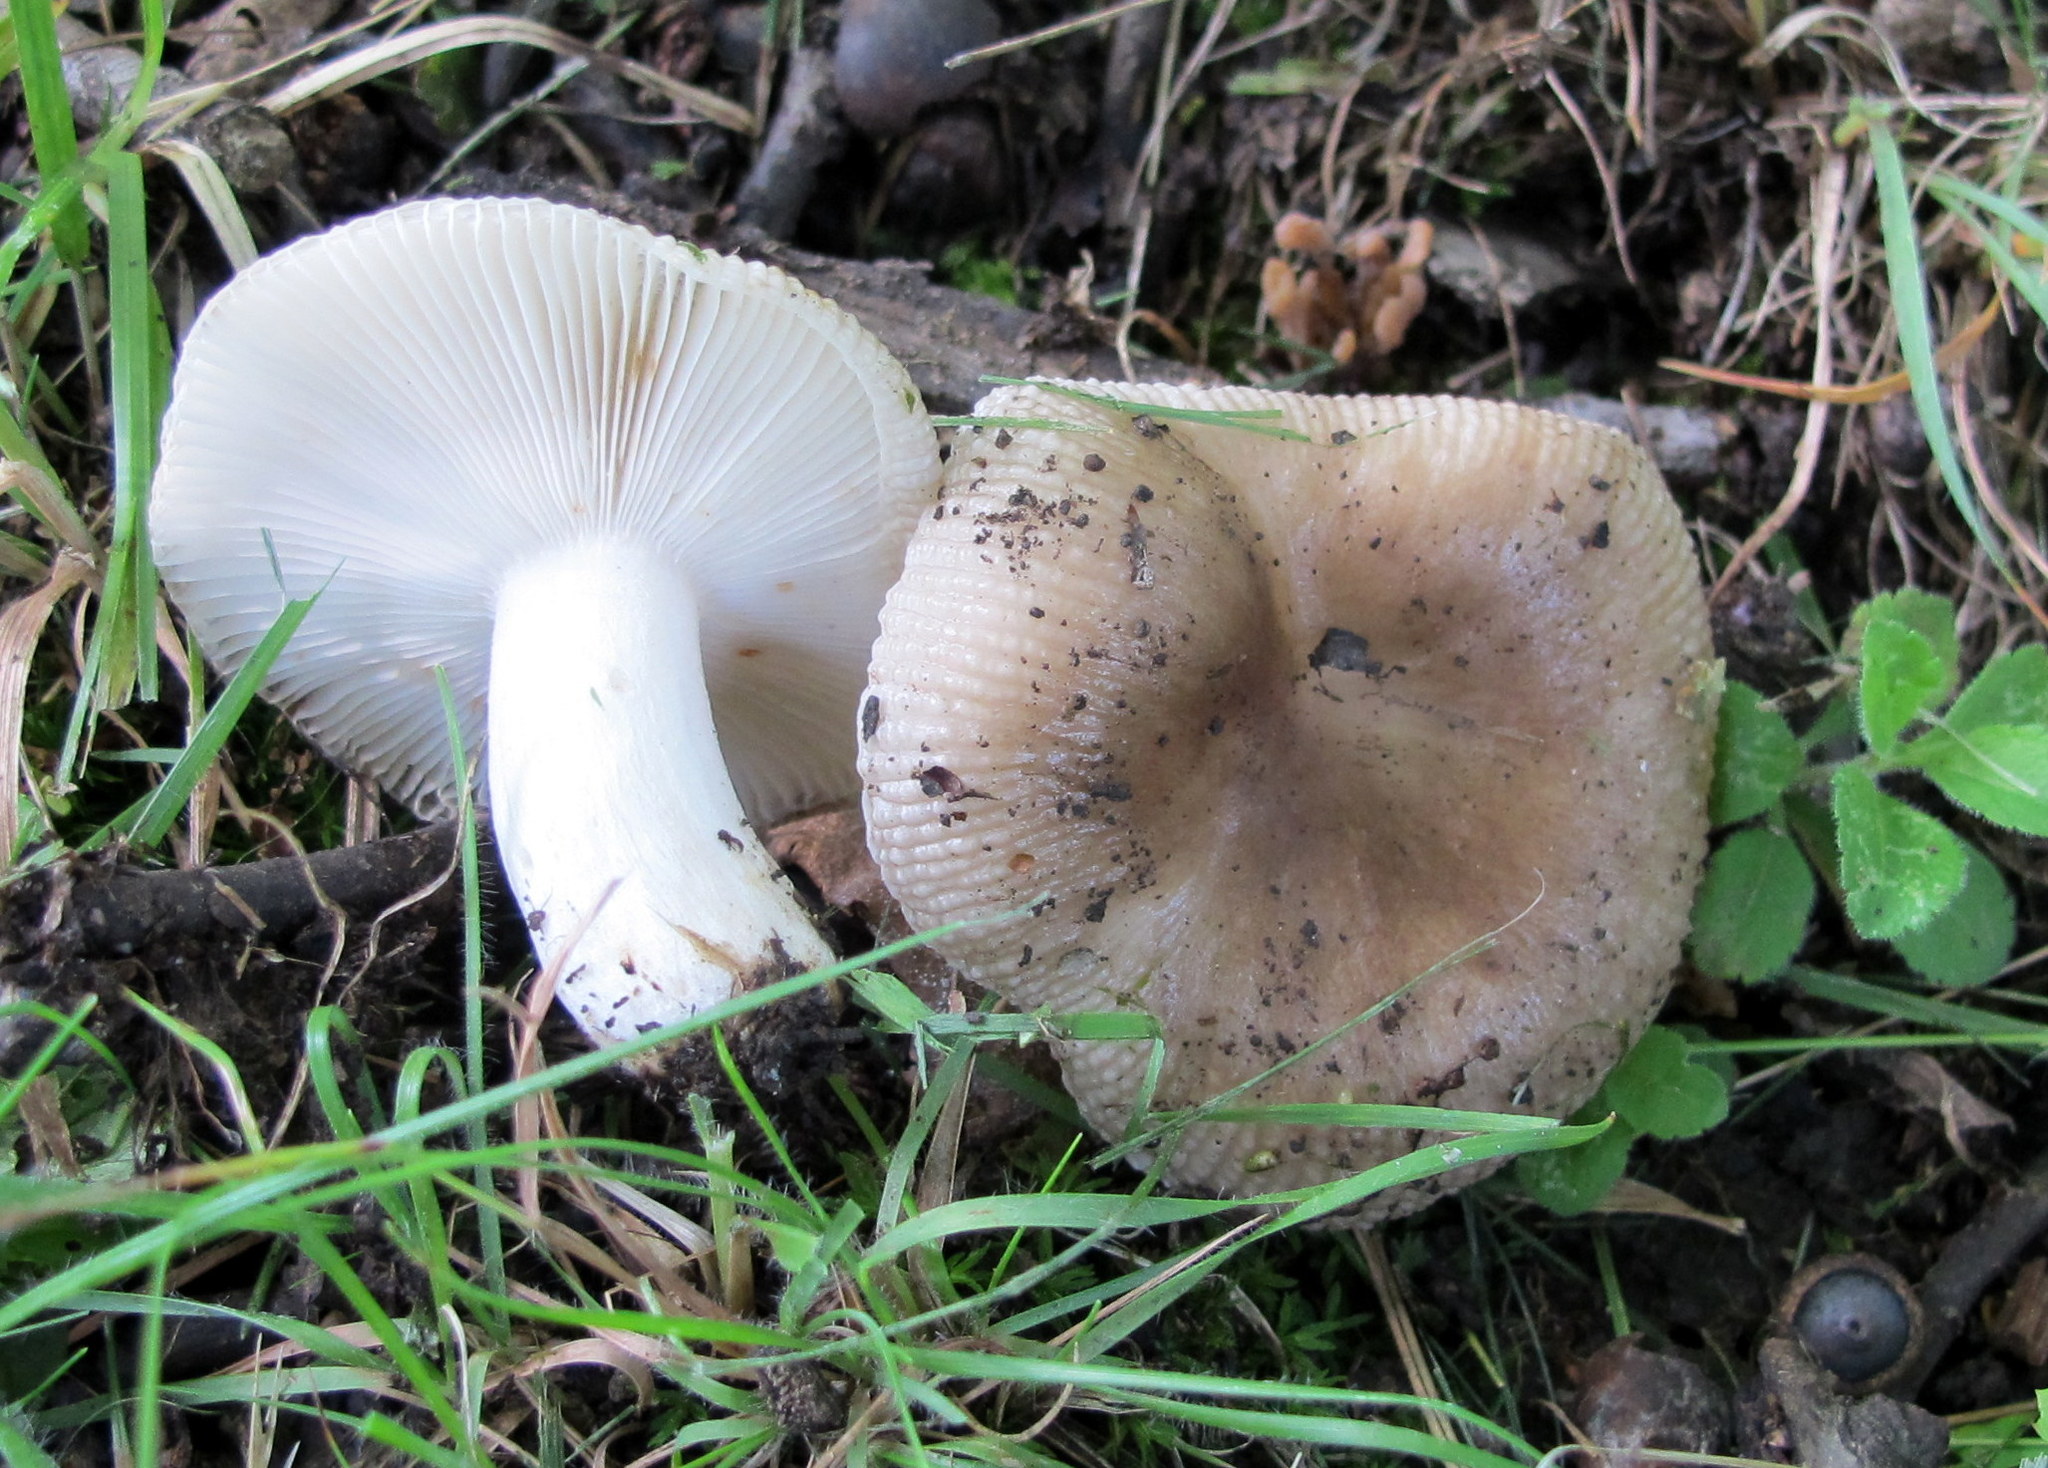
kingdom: Fungi
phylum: Basidiomycota
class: Agaricomycetes
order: Russulales
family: Russulaceae
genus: Russula
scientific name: Russula amoenolens
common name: Camembert brittlegill
